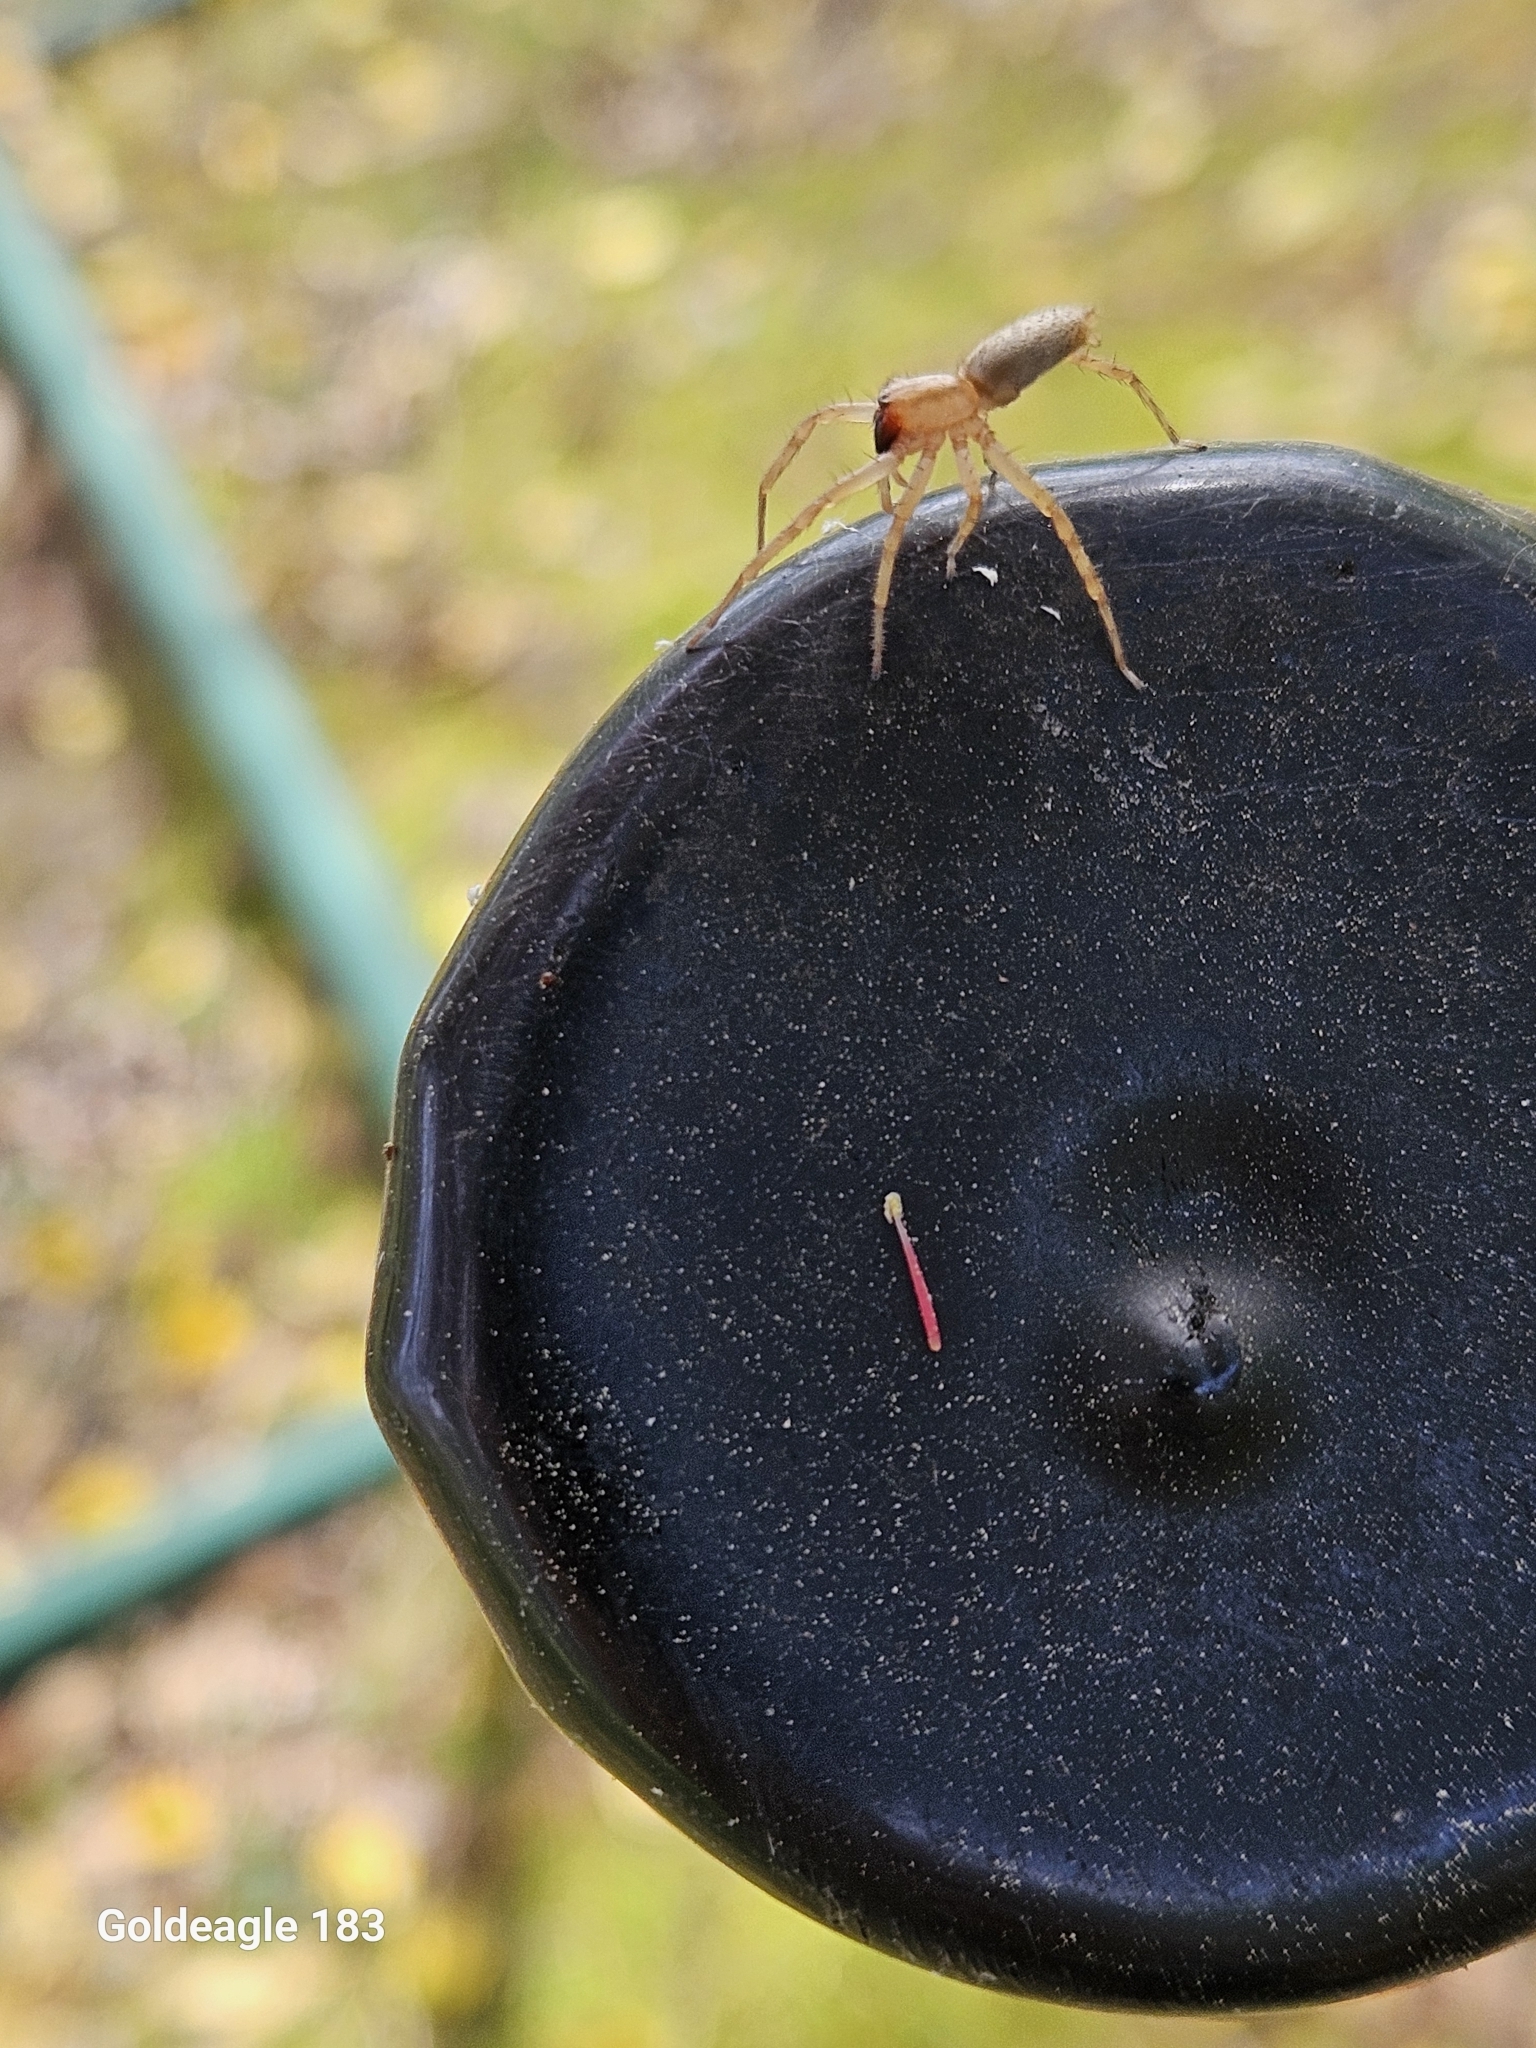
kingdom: Animalia
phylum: Arthropoda
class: Arachnida
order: Araneae
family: Anyphaenidae
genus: Hibana
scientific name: Hibana gracilis
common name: Garden ghost spider
